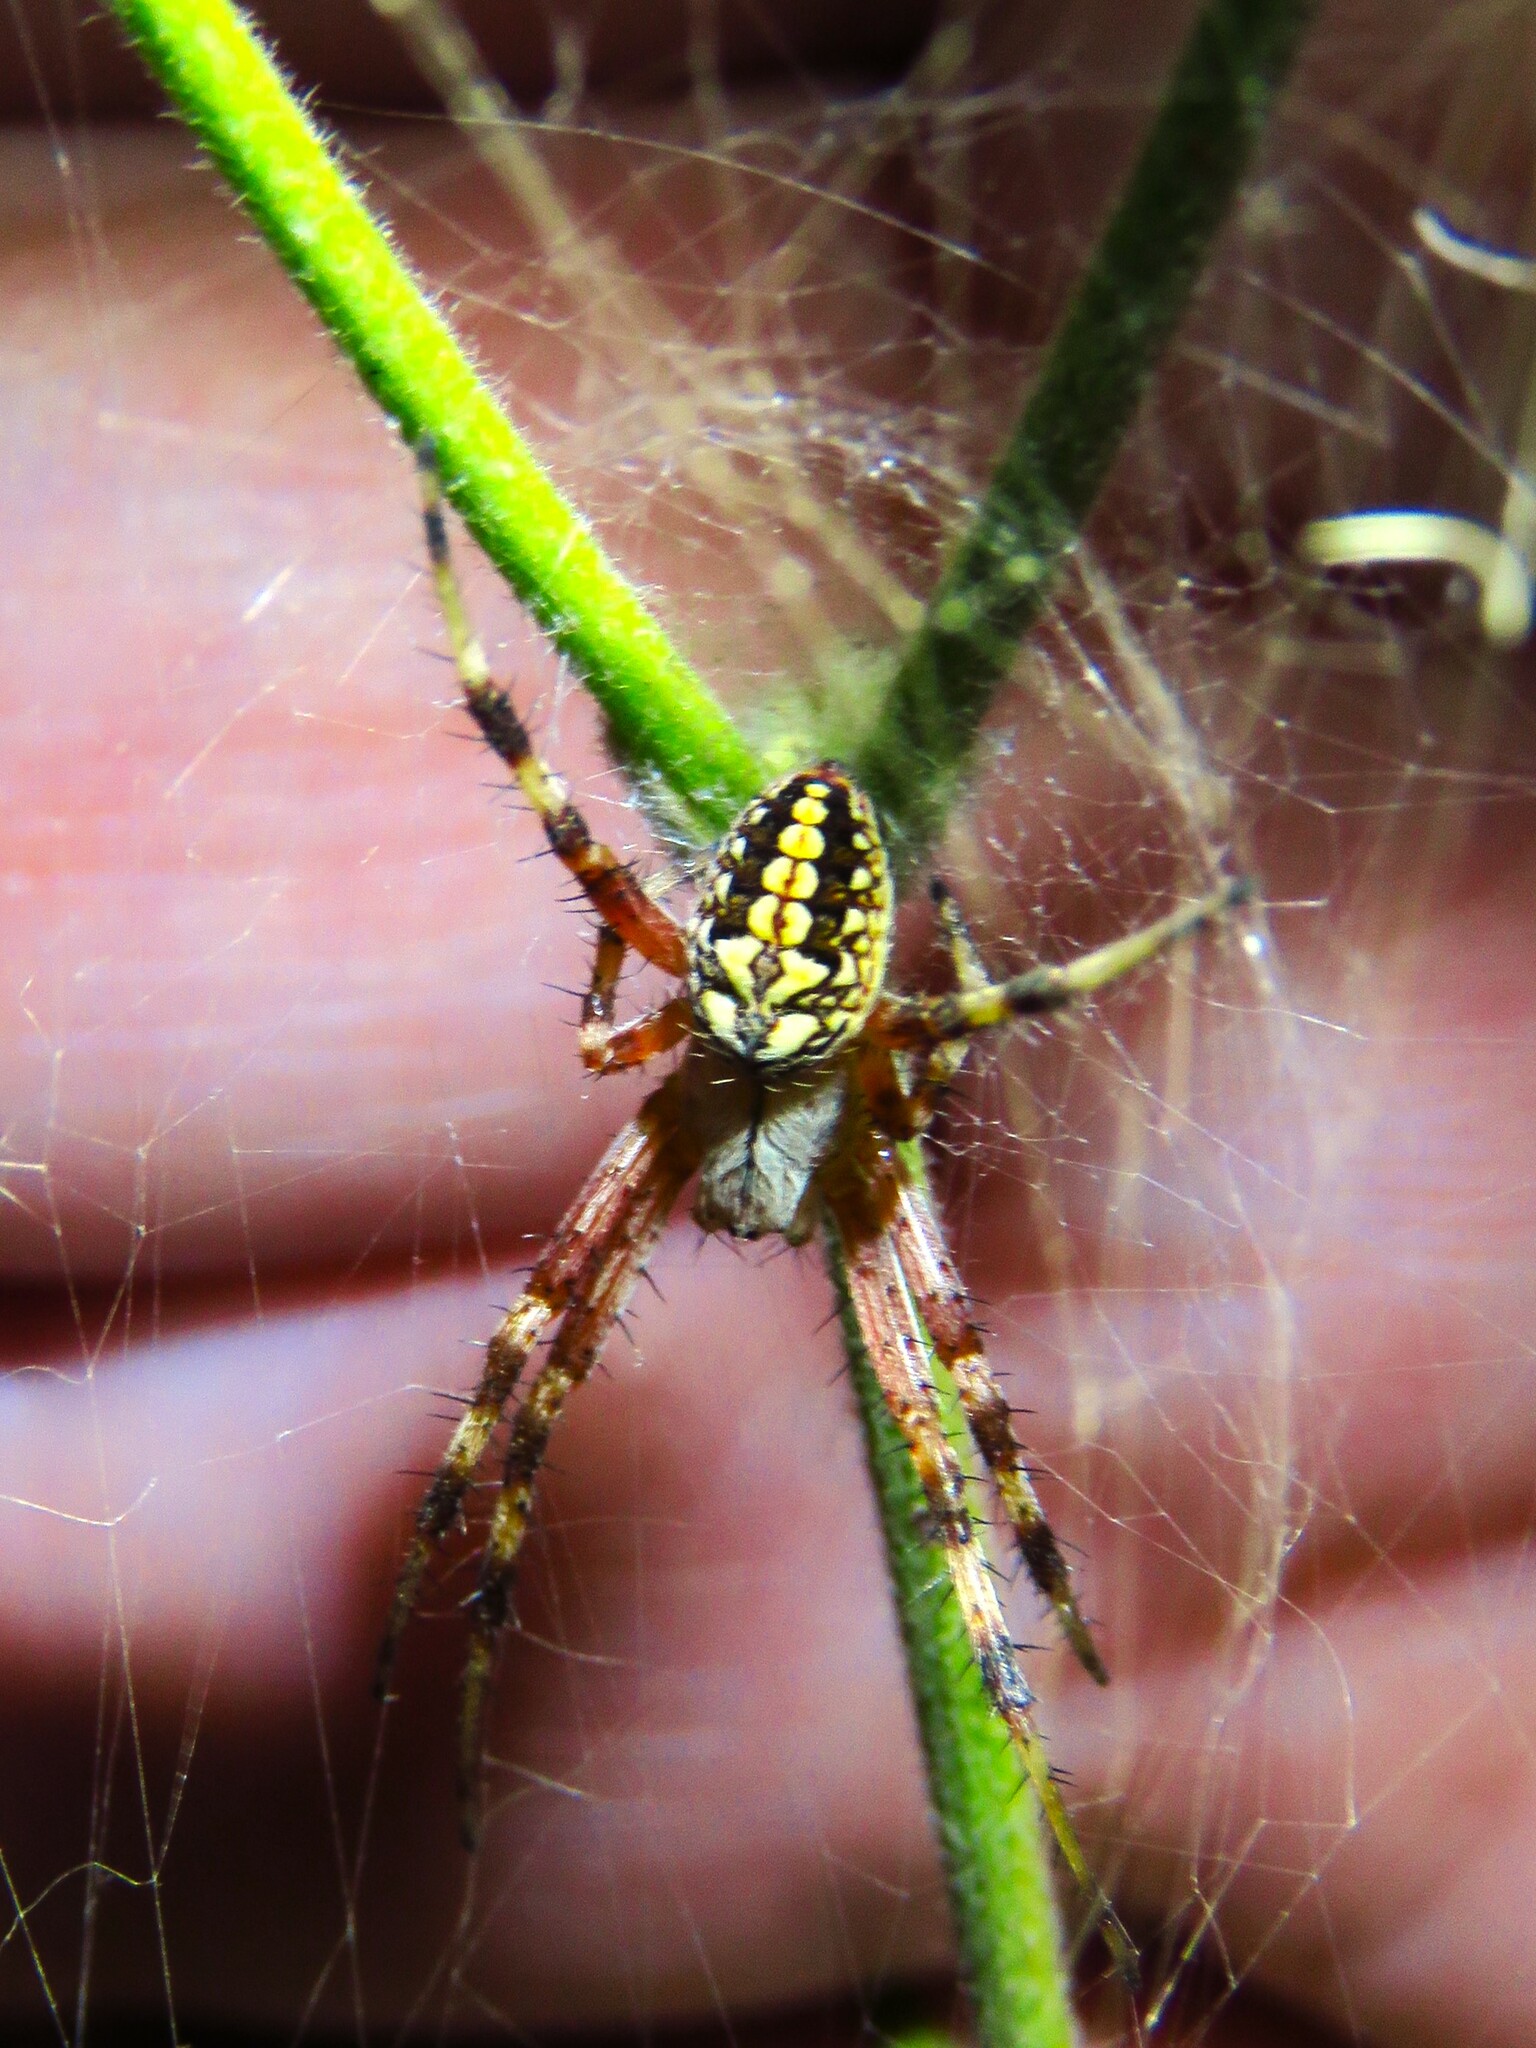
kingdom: Animalia
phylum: Arthropoda
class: Arachnida
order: Araneae
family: Araneidae
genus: Neoscona
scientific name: Neoscona oaxacensis
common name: Orb weavers
